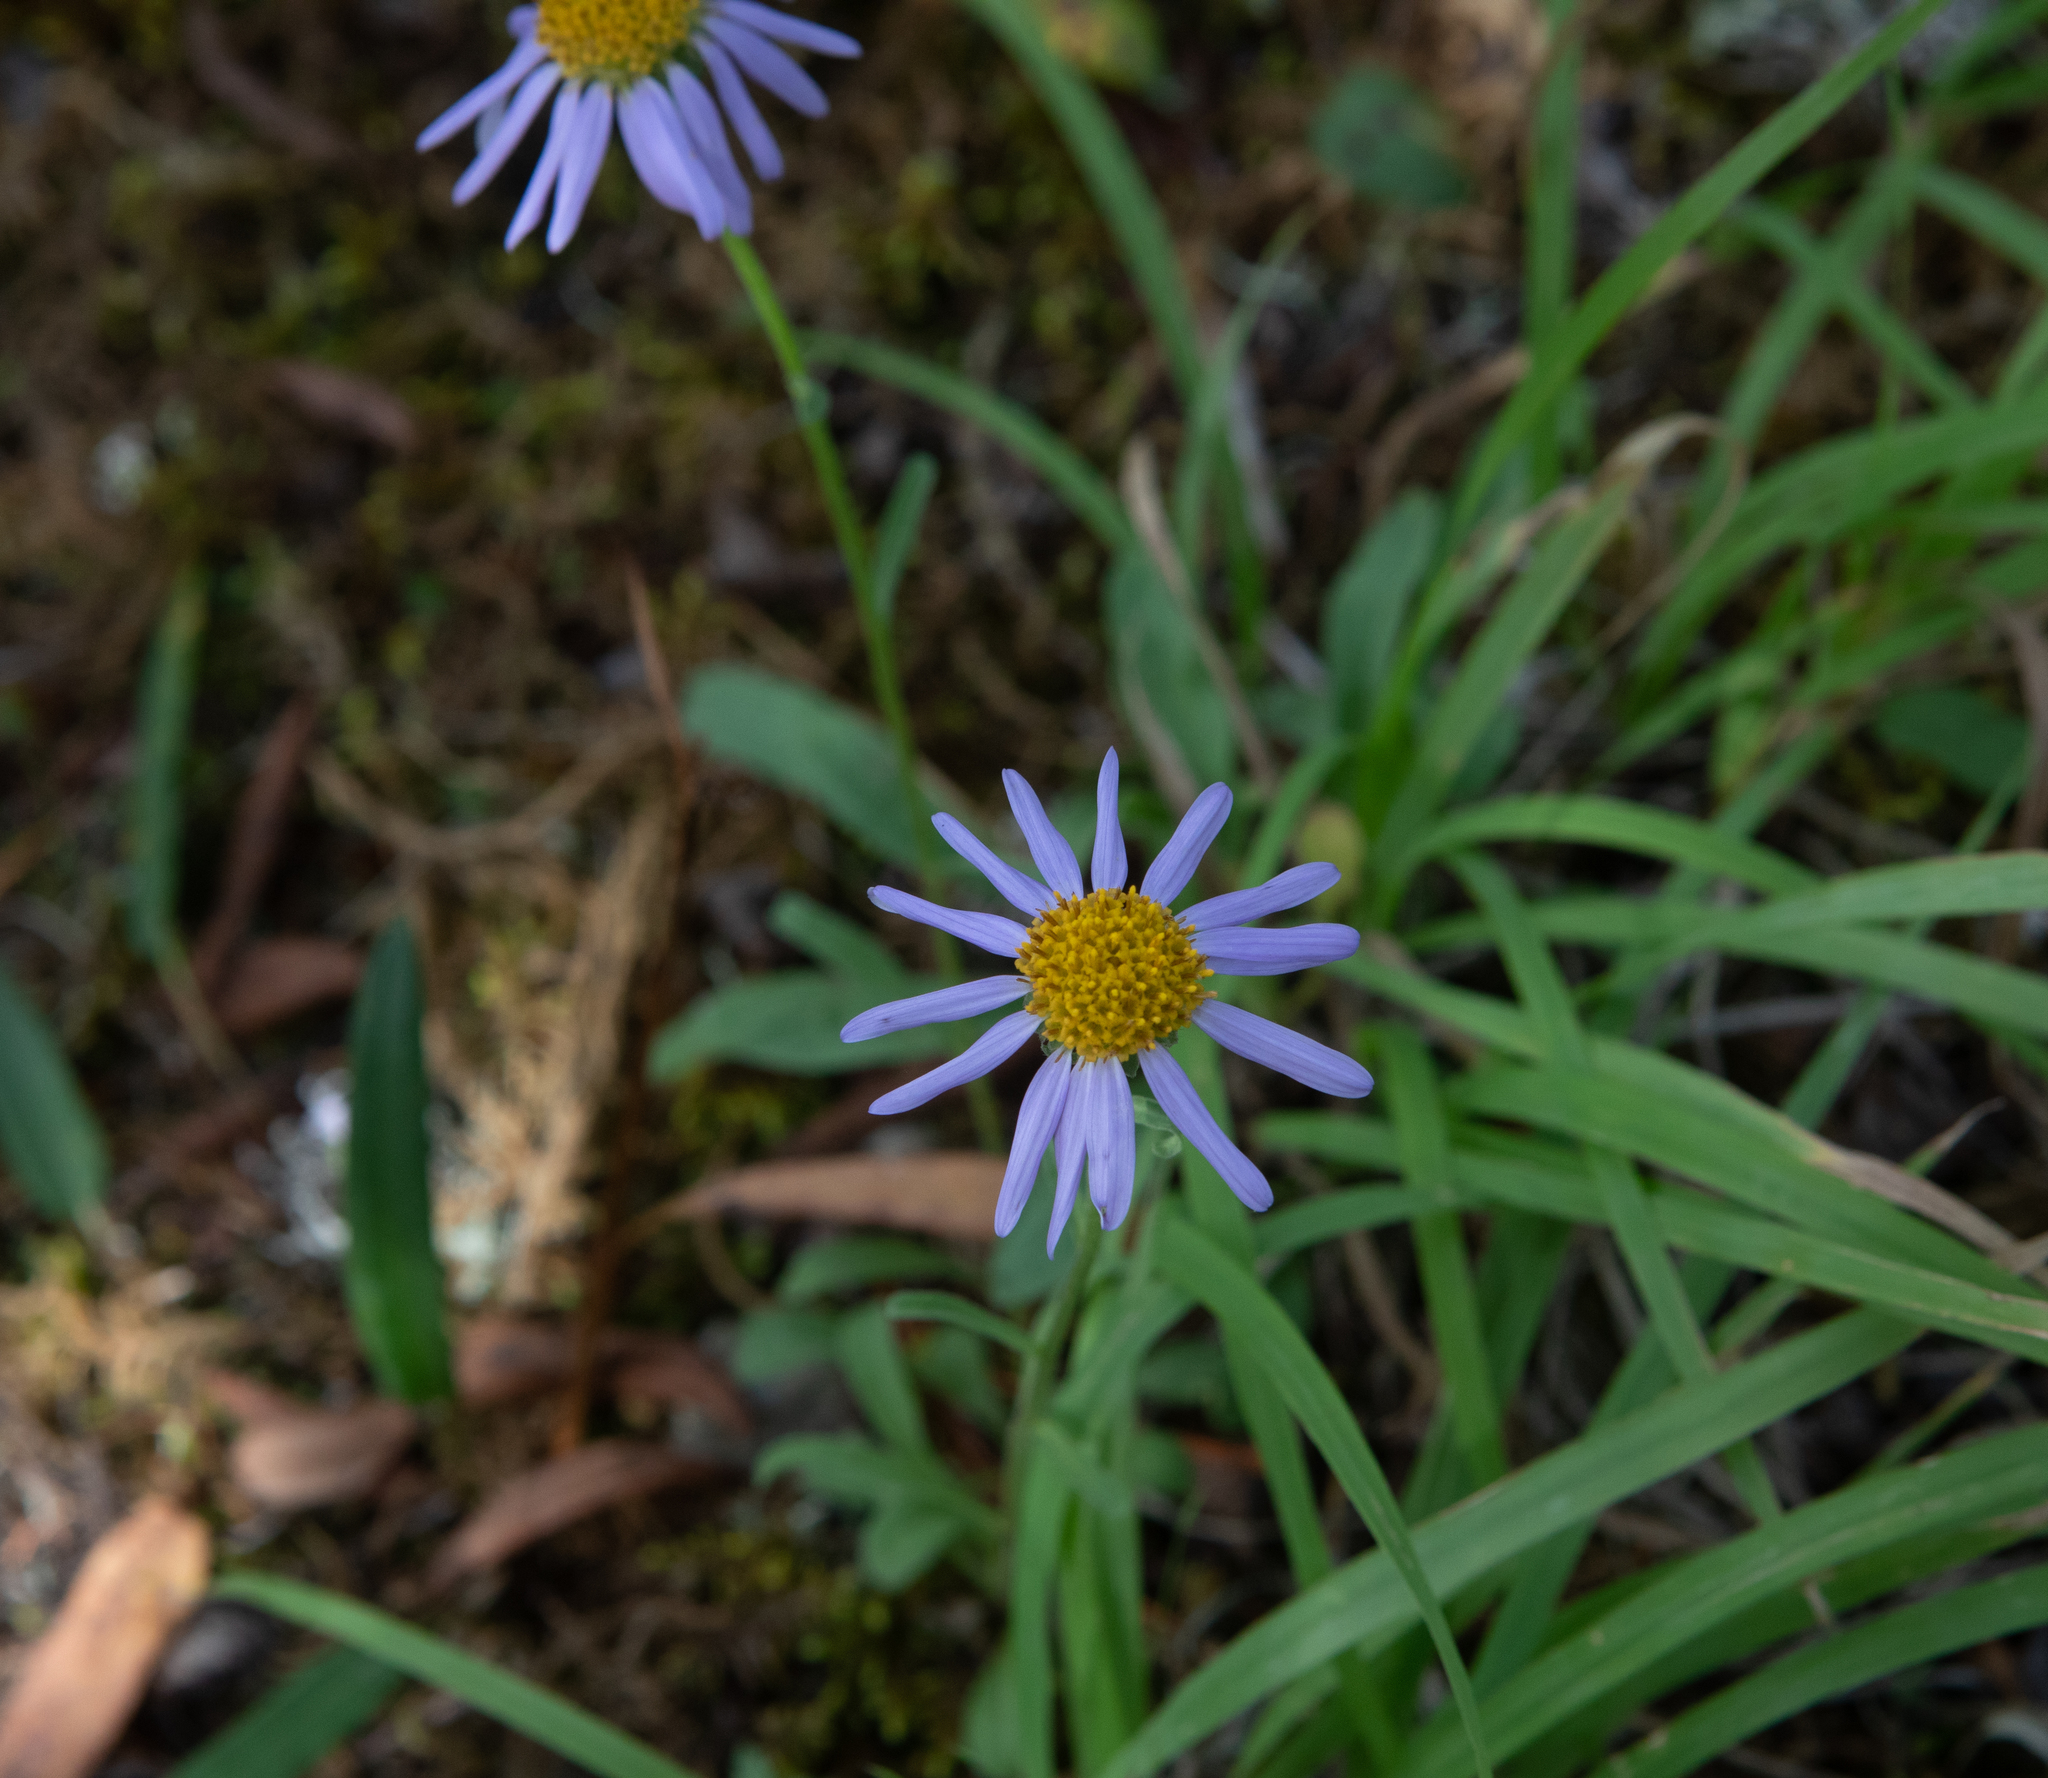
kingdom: Plantae
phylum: Tracheophyta
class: Magnoliopsida
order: Asterales
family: Asteraceae
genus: Aster
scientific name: Aster alpinus
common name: Alpine aster
